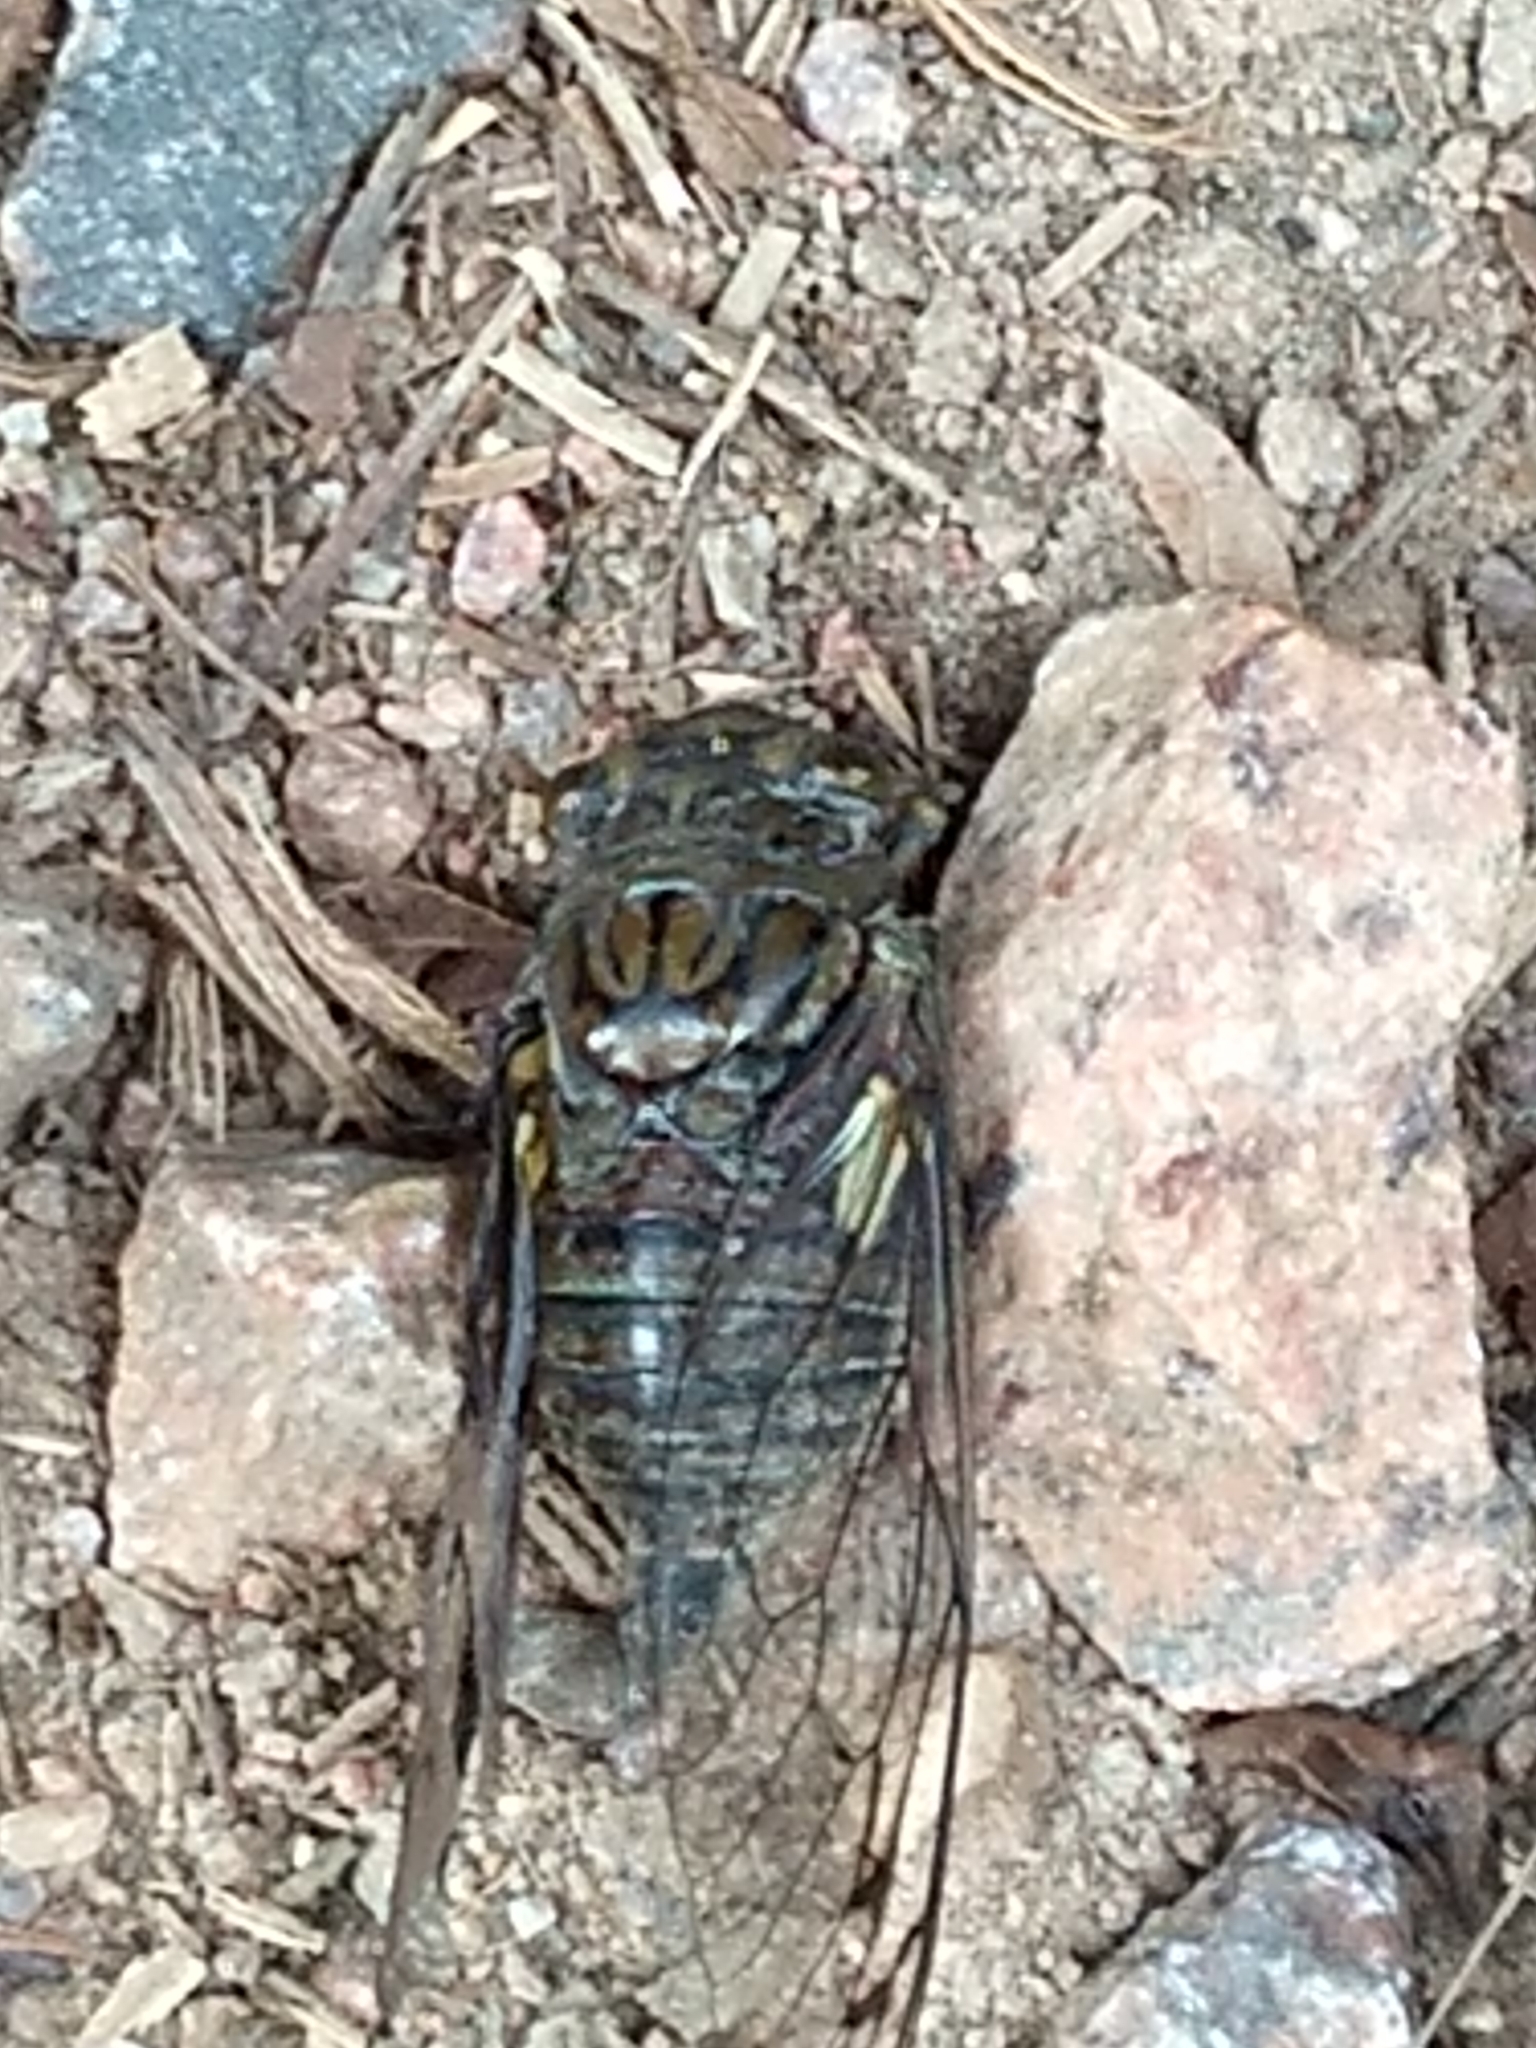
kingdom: Animalia
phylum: Arthropoda
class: Insecta
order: Hemiptera
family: Cicadidae
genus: Quesada
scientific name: Quesada gigas
